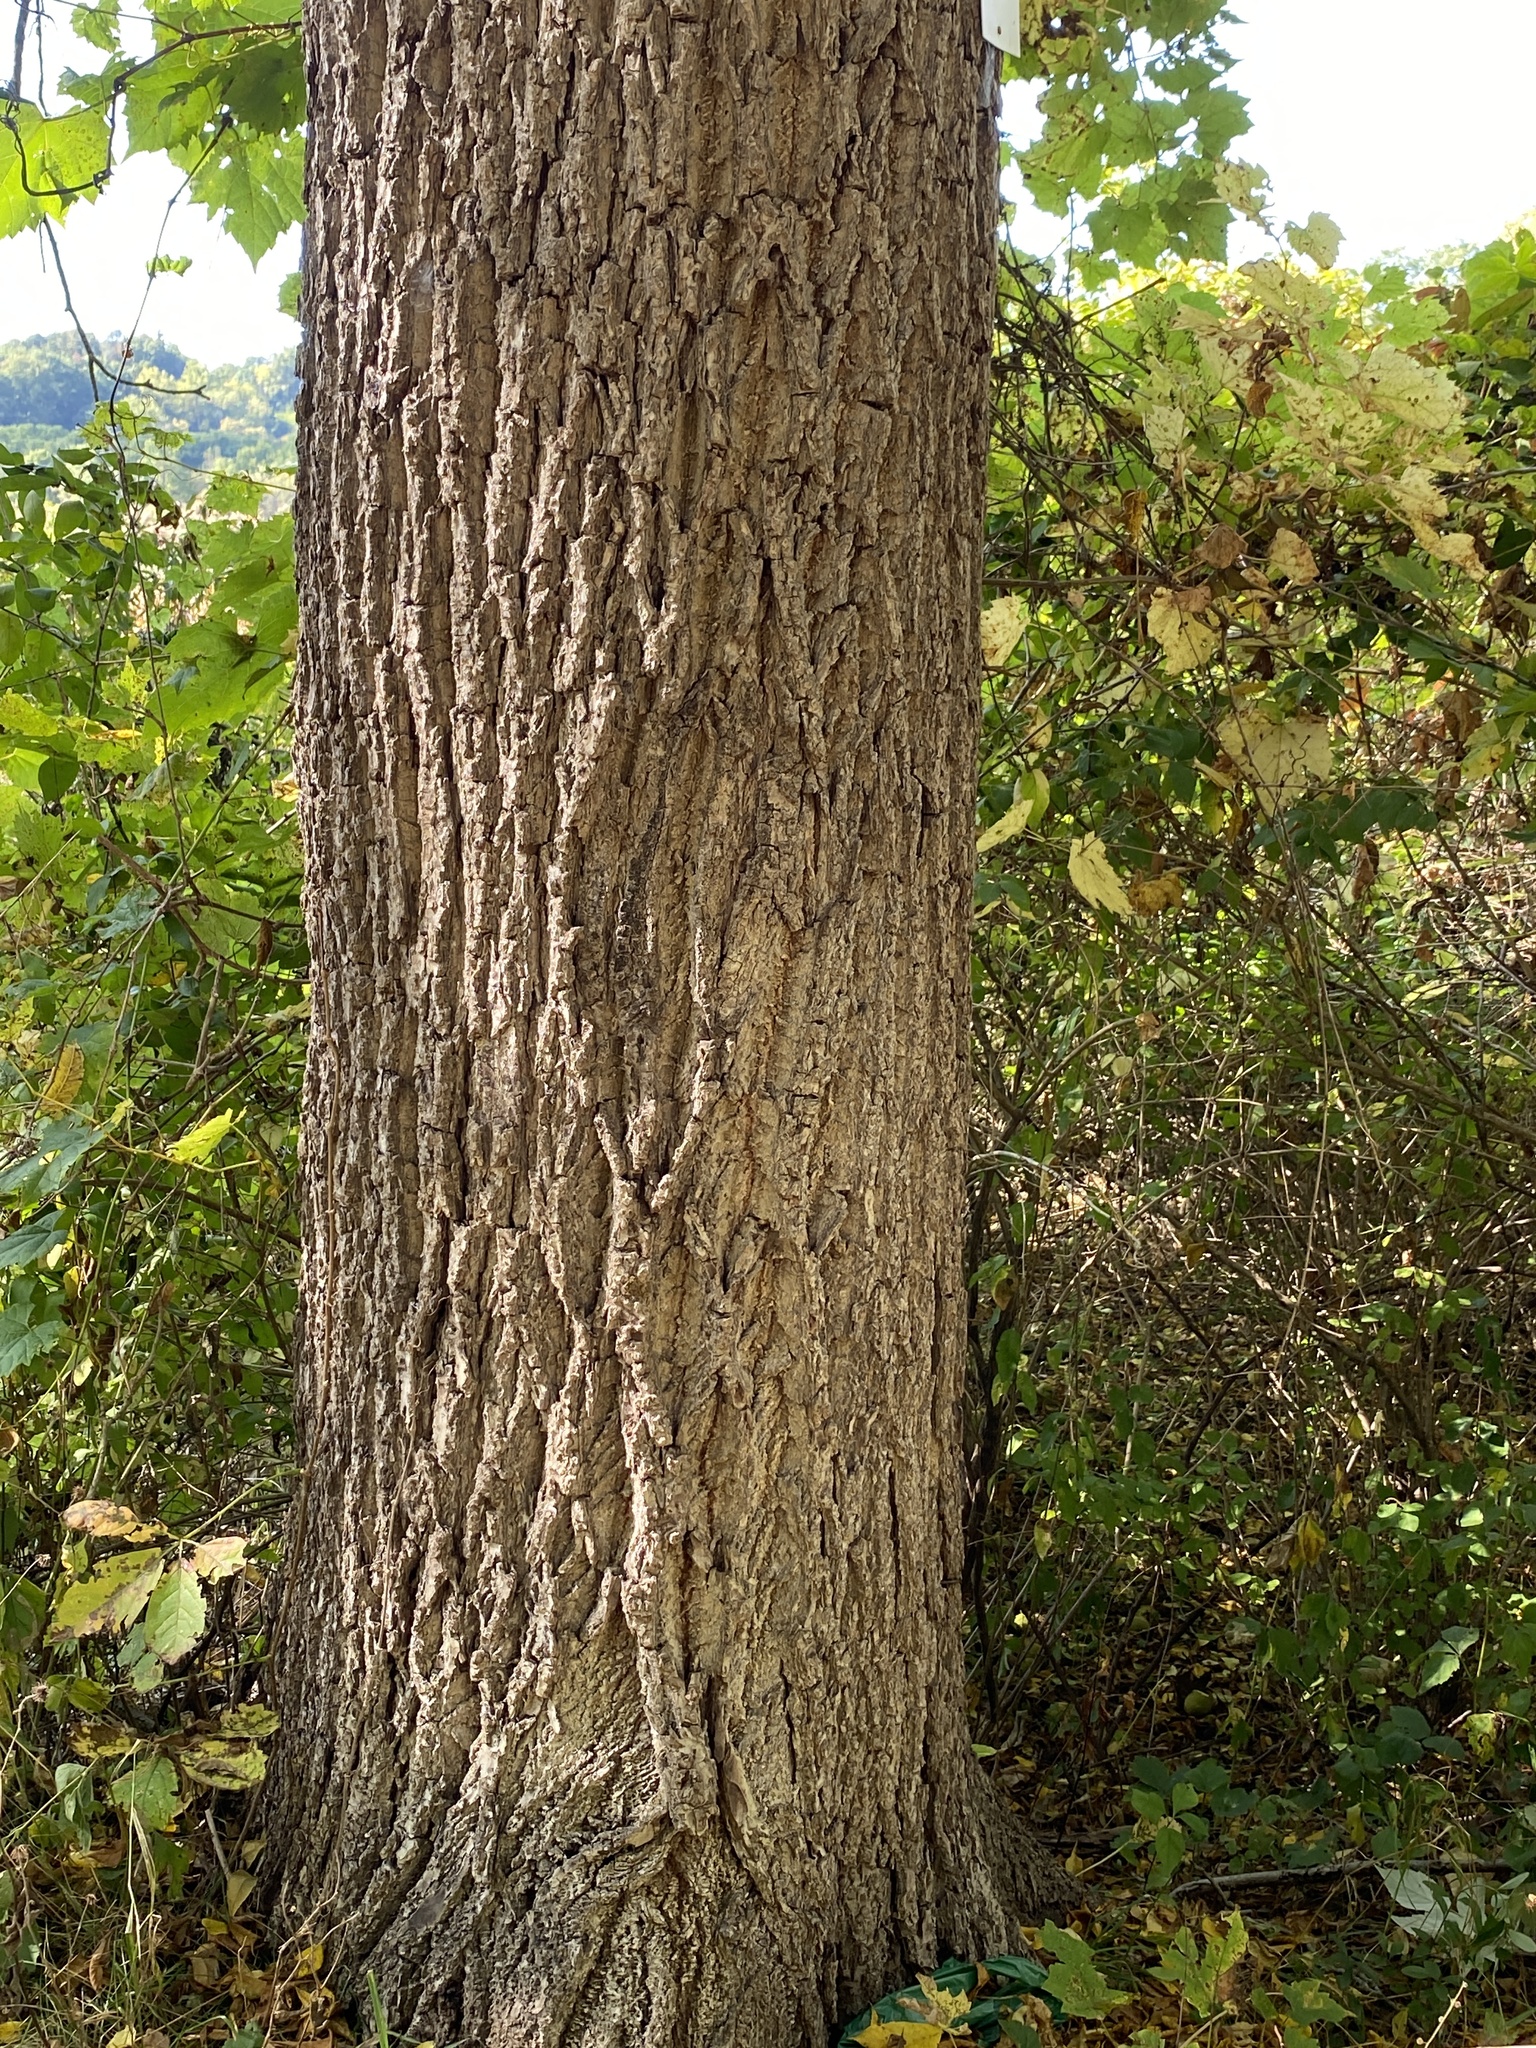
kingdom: Plantae
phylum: Tracheophyta
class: Magnoliopsida
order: Fagales
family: Juglandaceae
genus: Juglans
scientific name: Juglans nigra
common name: Black walnut
